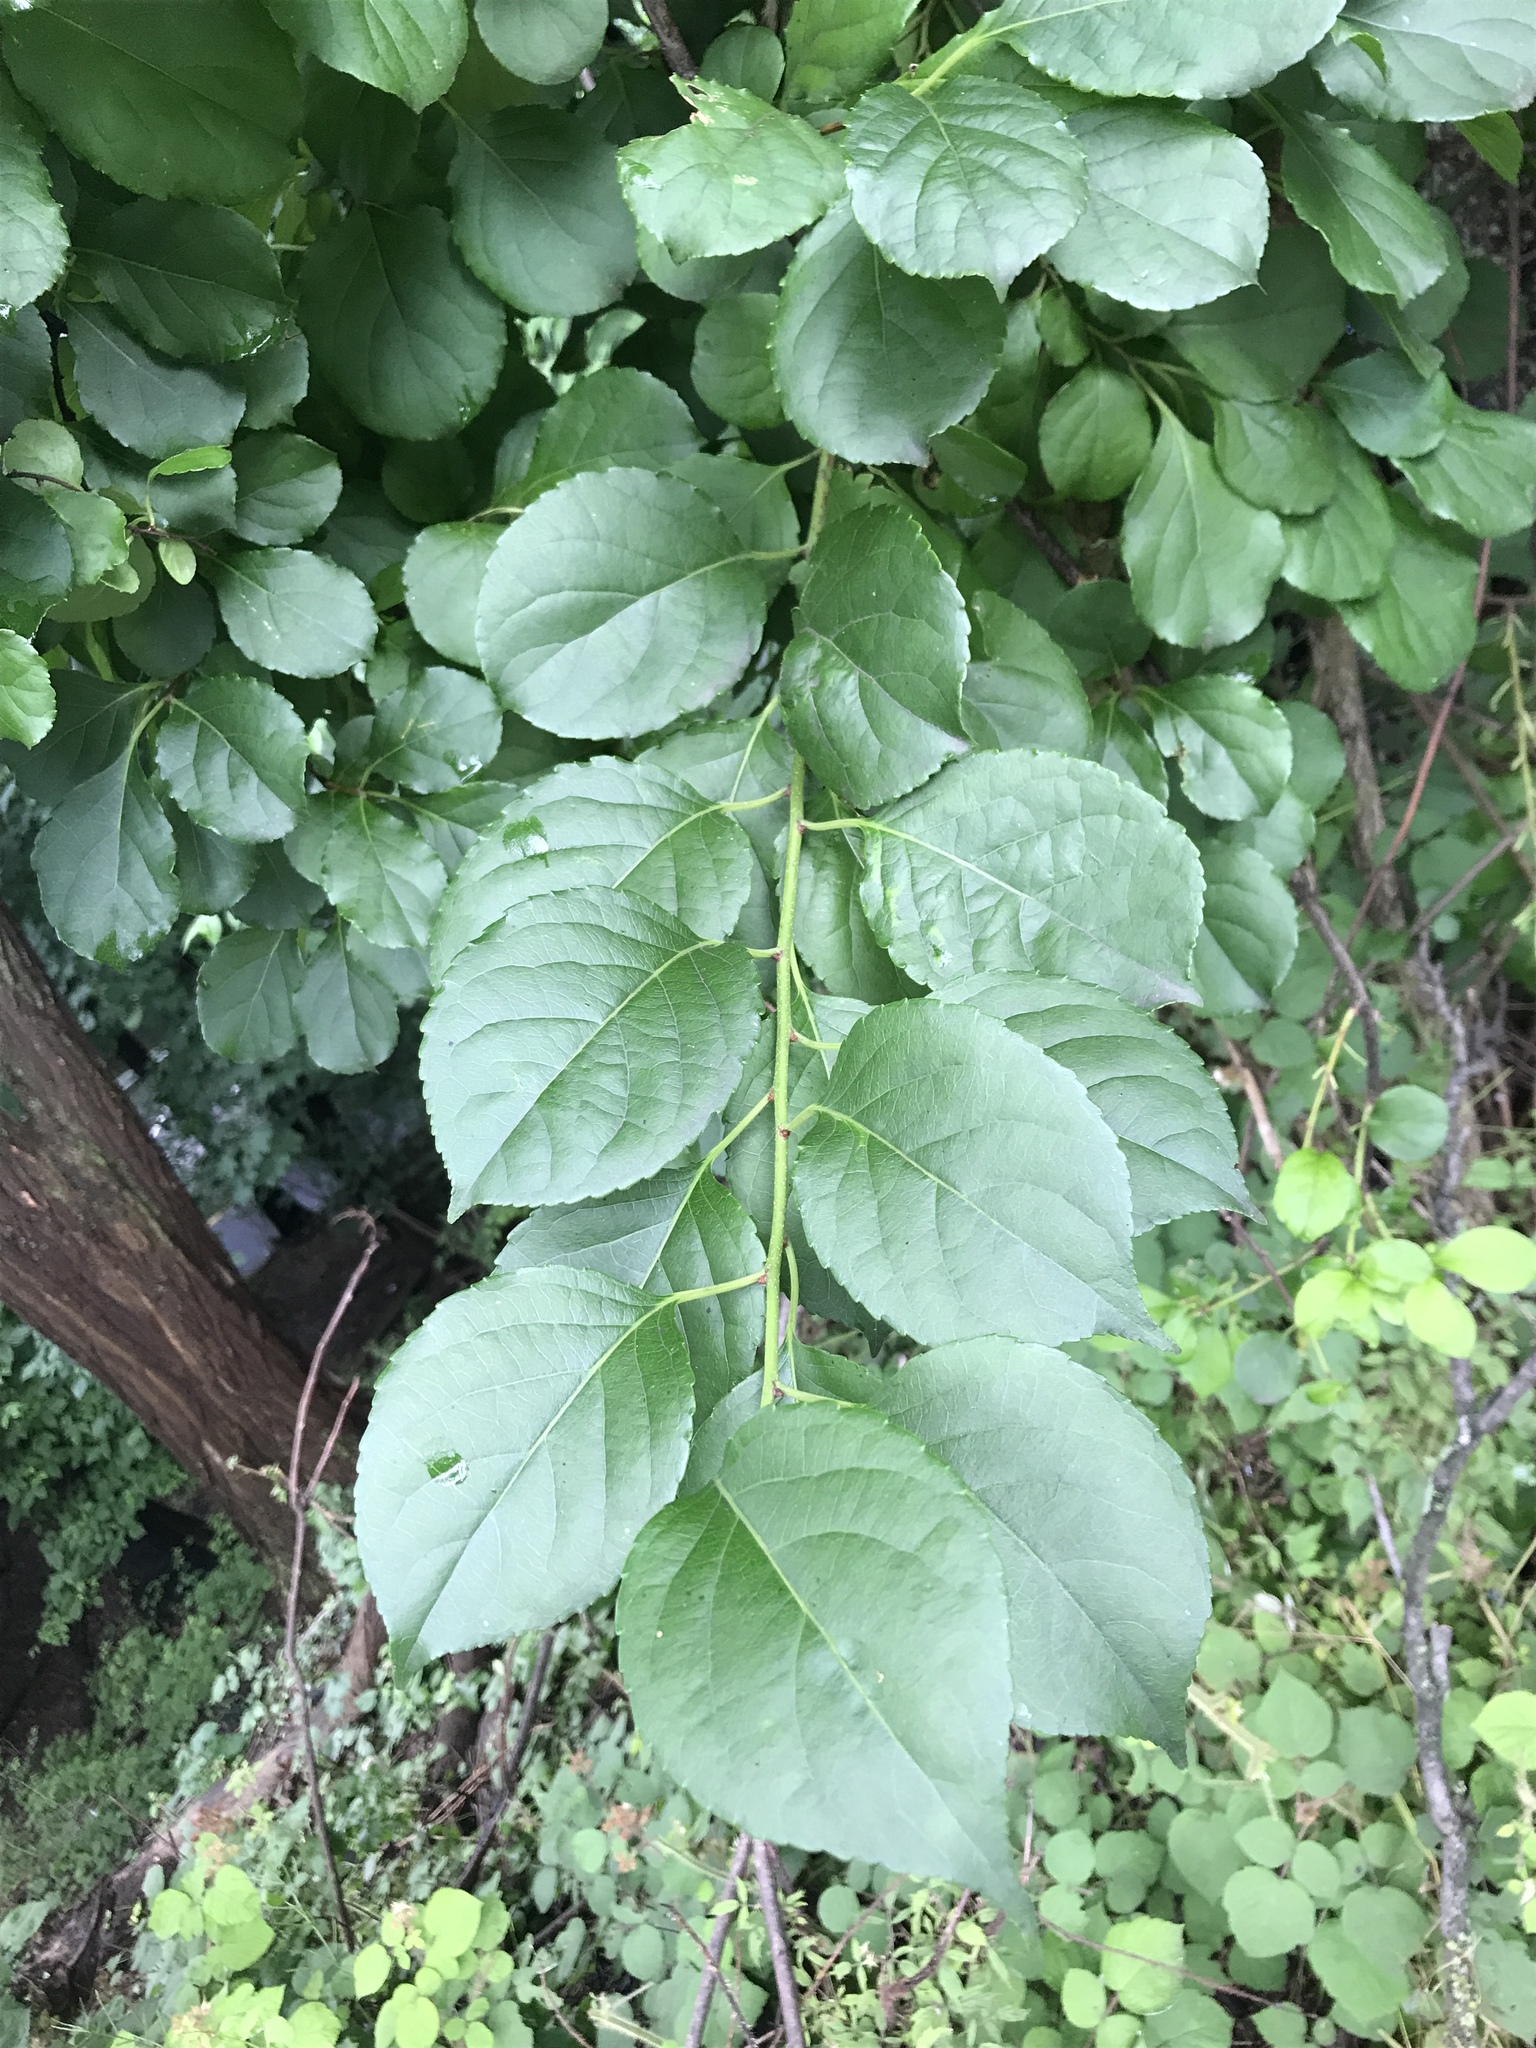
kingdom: Plantae
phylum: Tracheophyta
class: Magnoliopsida
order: Celastrales
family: Celastraceae
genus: Celastrus
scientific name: Celastrus orbiculatus
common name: Oriental bittersweet
